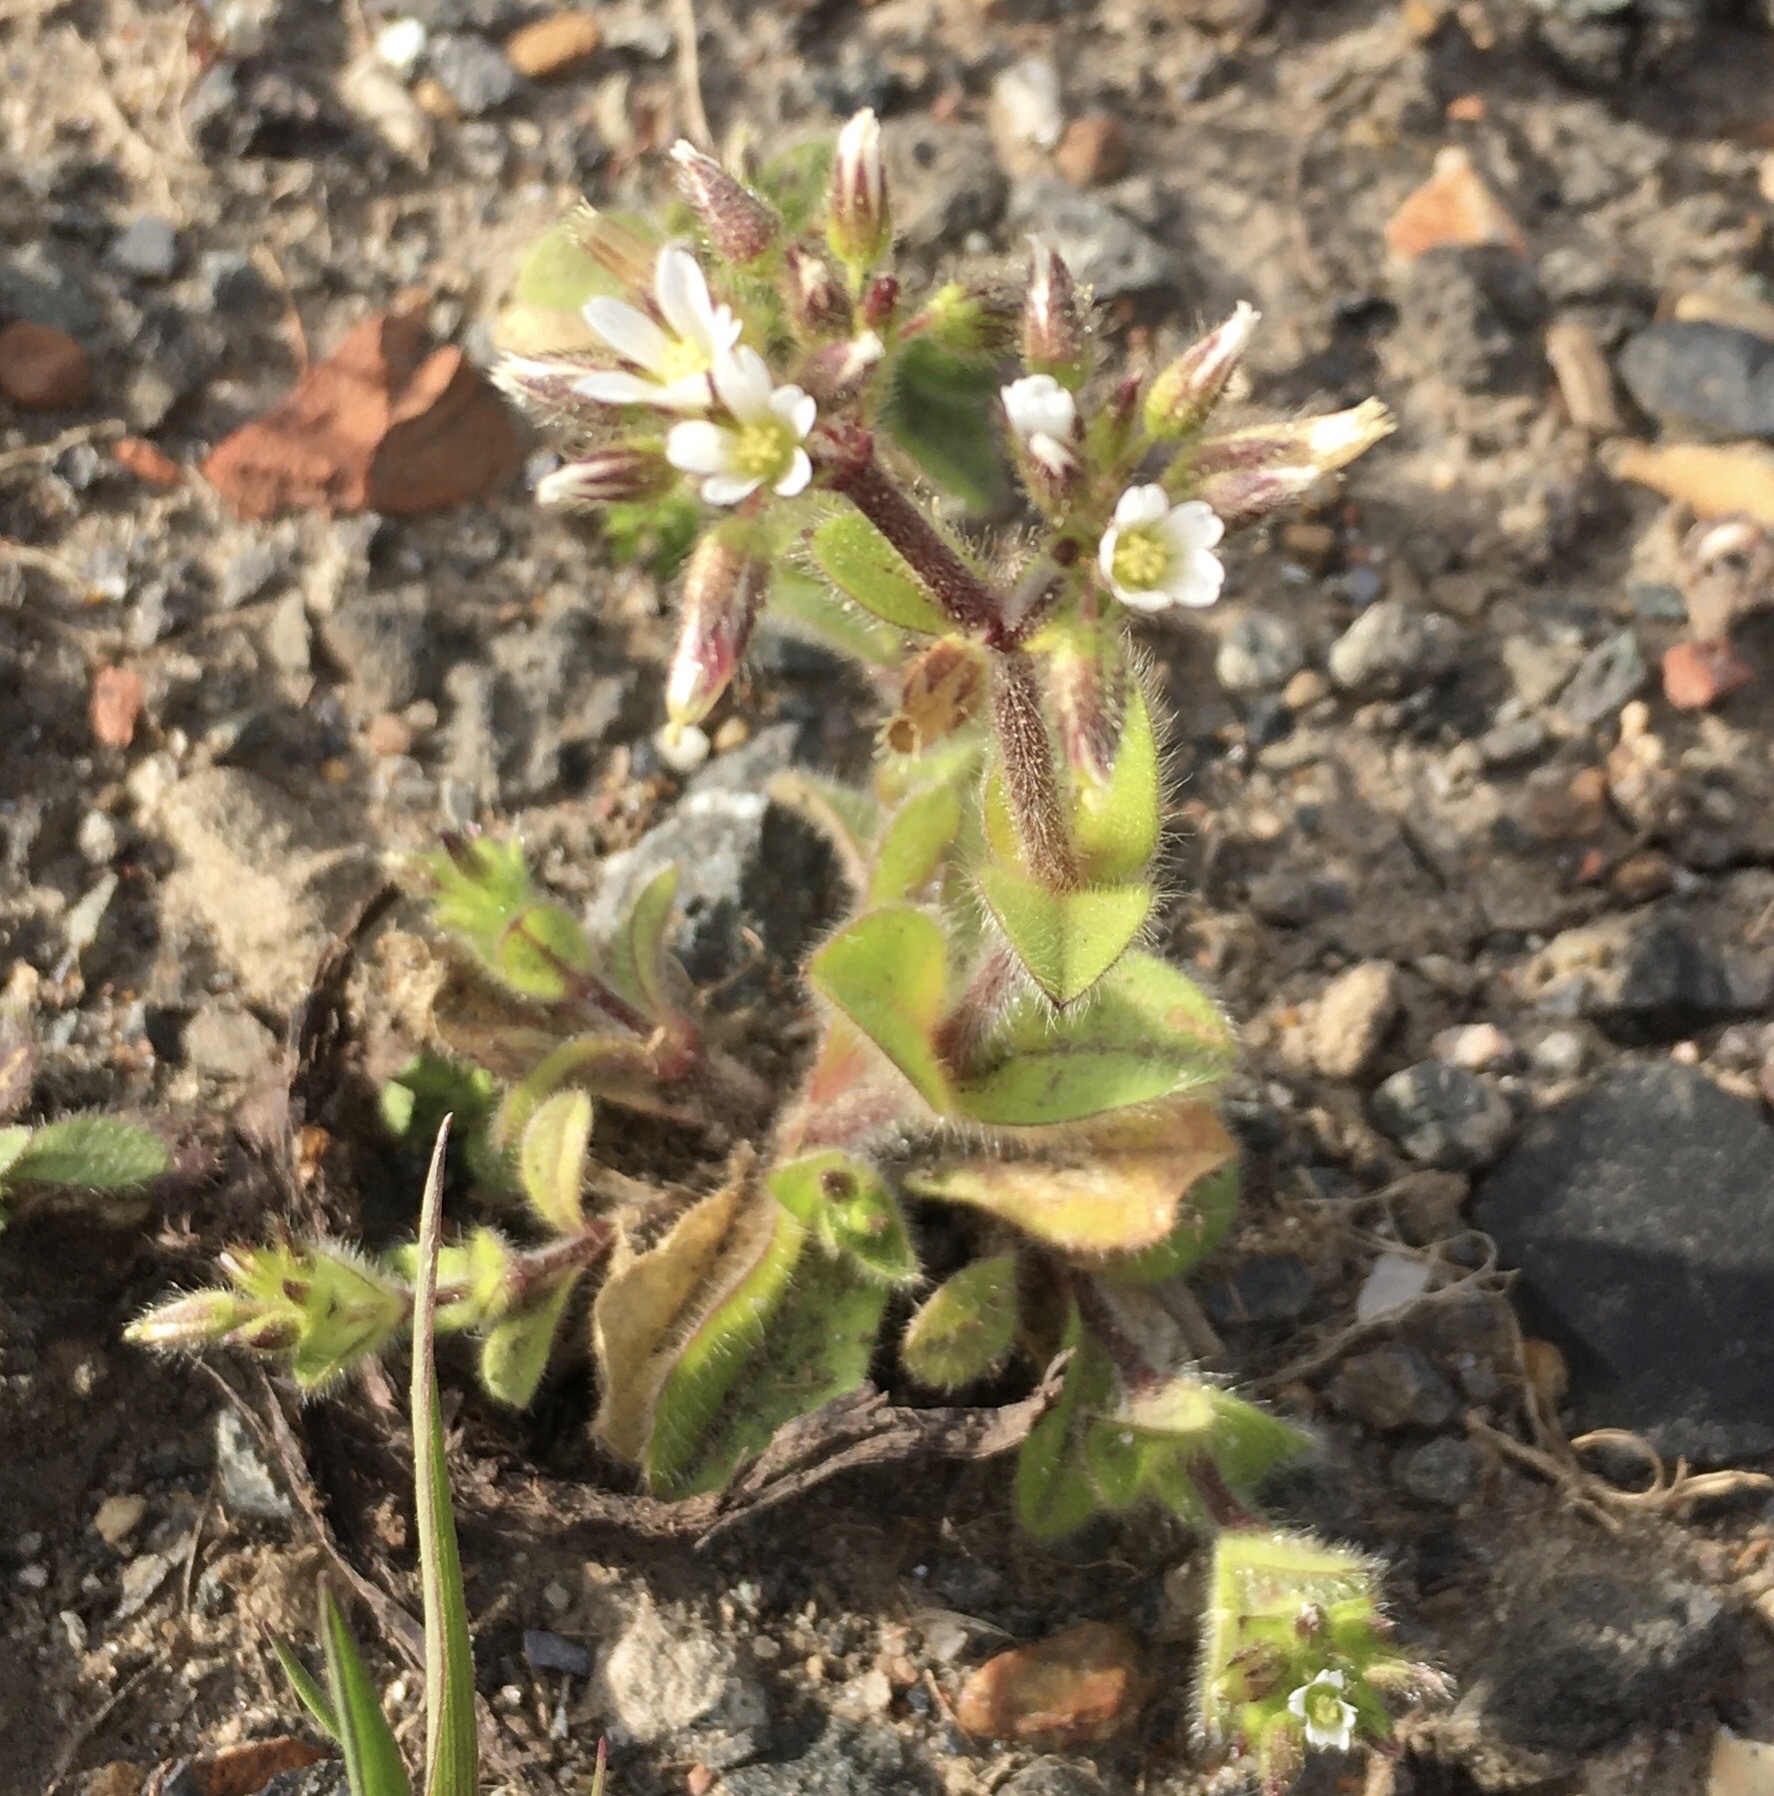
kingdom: Plantae
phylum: Tracheophyta
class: Magnoliopsida
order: Caryophyllales
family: Caryophyllaceae
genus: Cerastium
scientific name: Cerastium glomeratum
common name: Sticky chickweed
